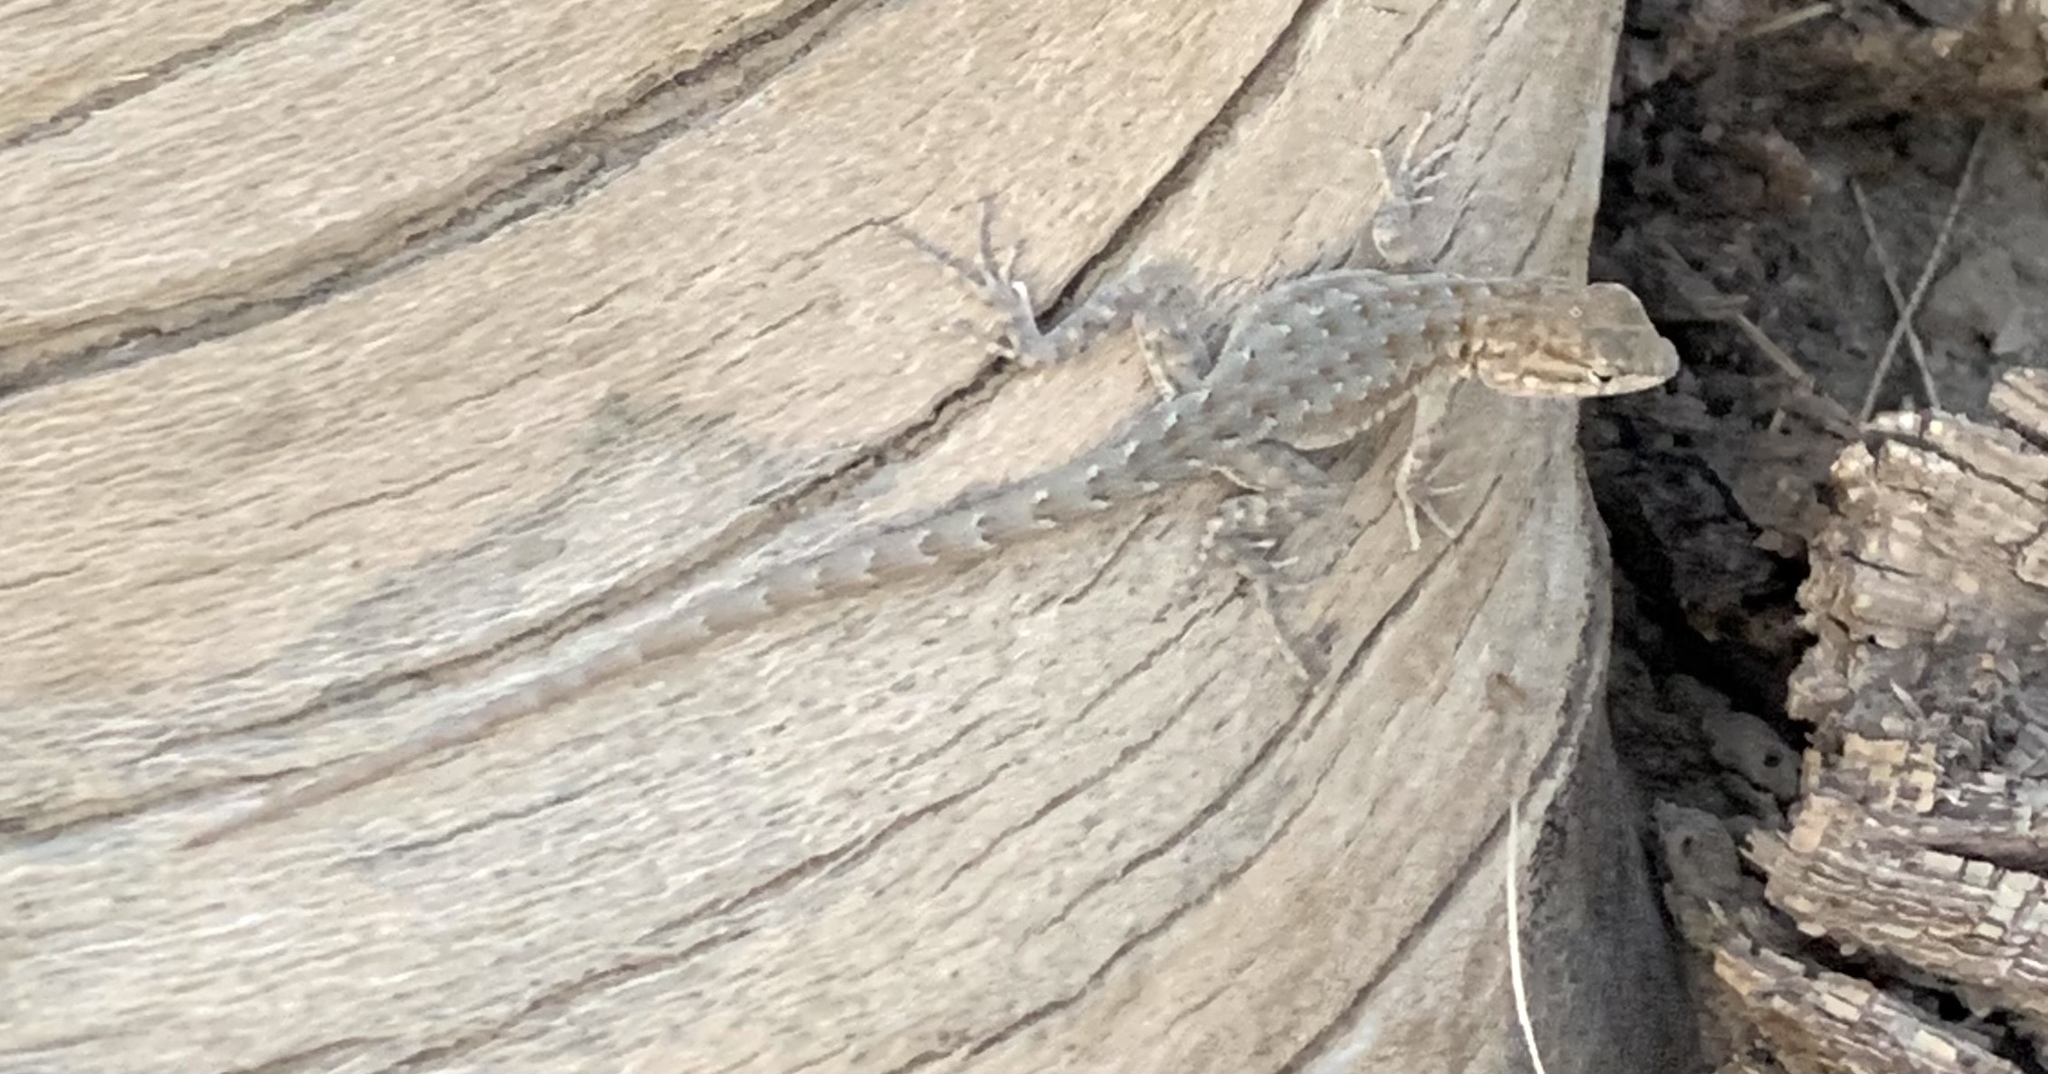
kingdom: Animalia
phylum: Chordata
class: Squamata
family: Phrynosomatidae
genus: Uta
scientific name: Uta stansburiana
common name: Side-blotched lizard
